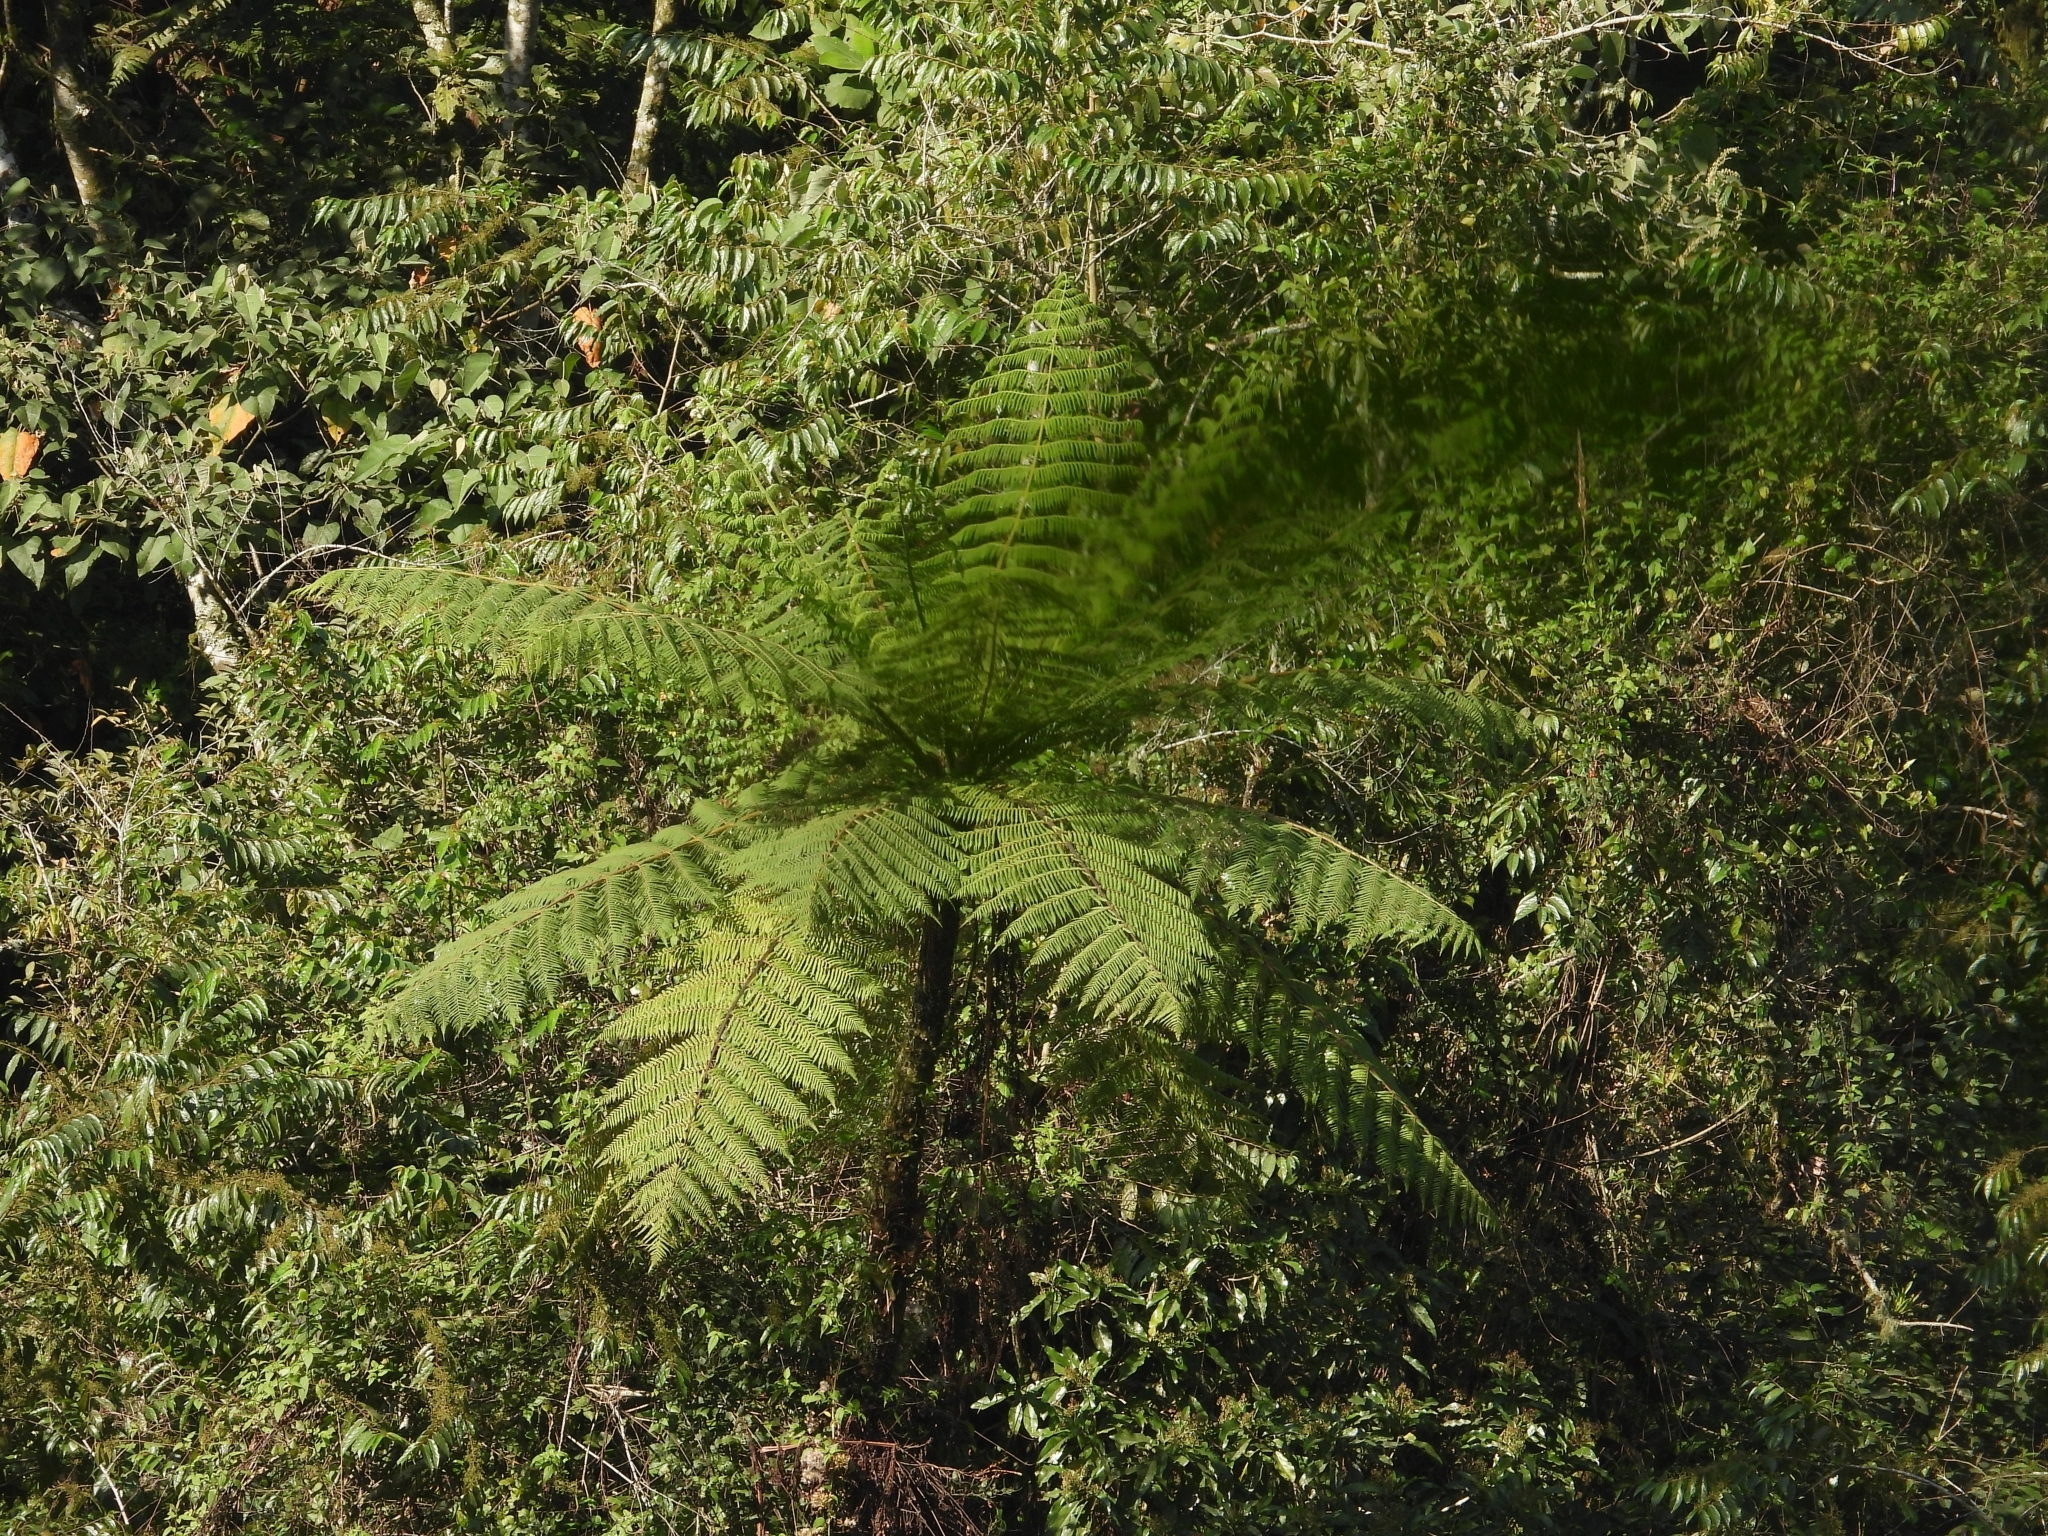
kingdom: Plantae
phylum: Tracheophyta
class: Polypodiopsida
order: Cyatheales
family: Cyatheaceae
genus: Alsophila
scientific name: Alsophila lepifera
